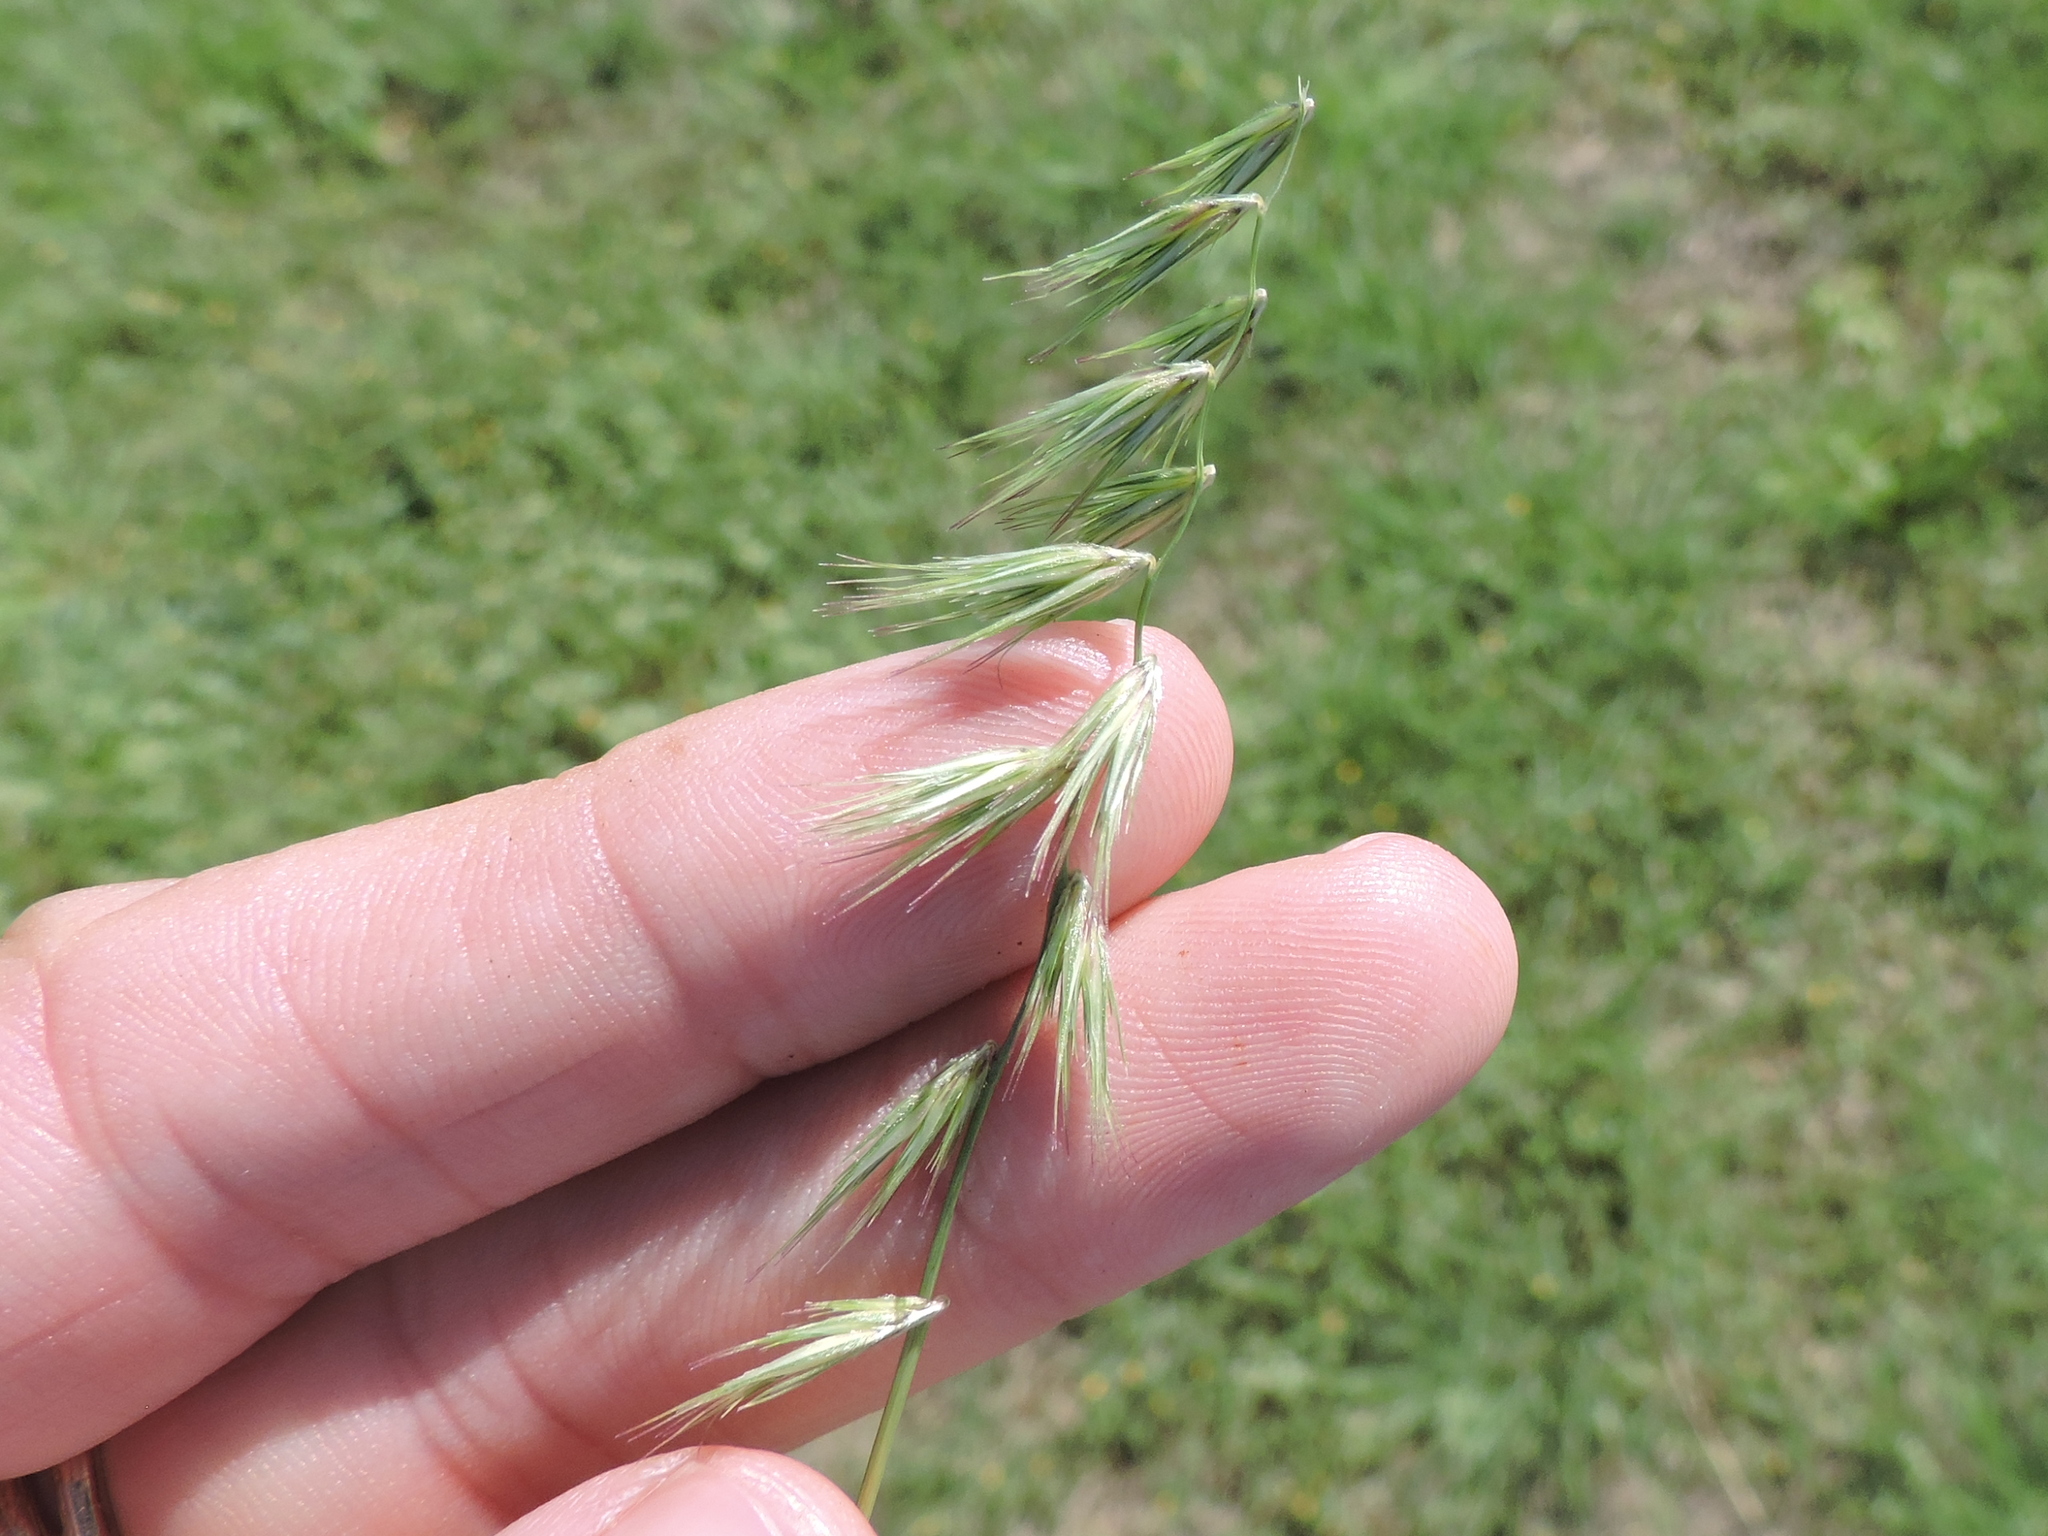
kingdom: Plantae
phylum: Tracheophyta
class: Liliopsida
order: Poales
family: Poaceae
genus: Bouteloua
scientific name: Bouteloua rigidiseta
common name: Texas grama
